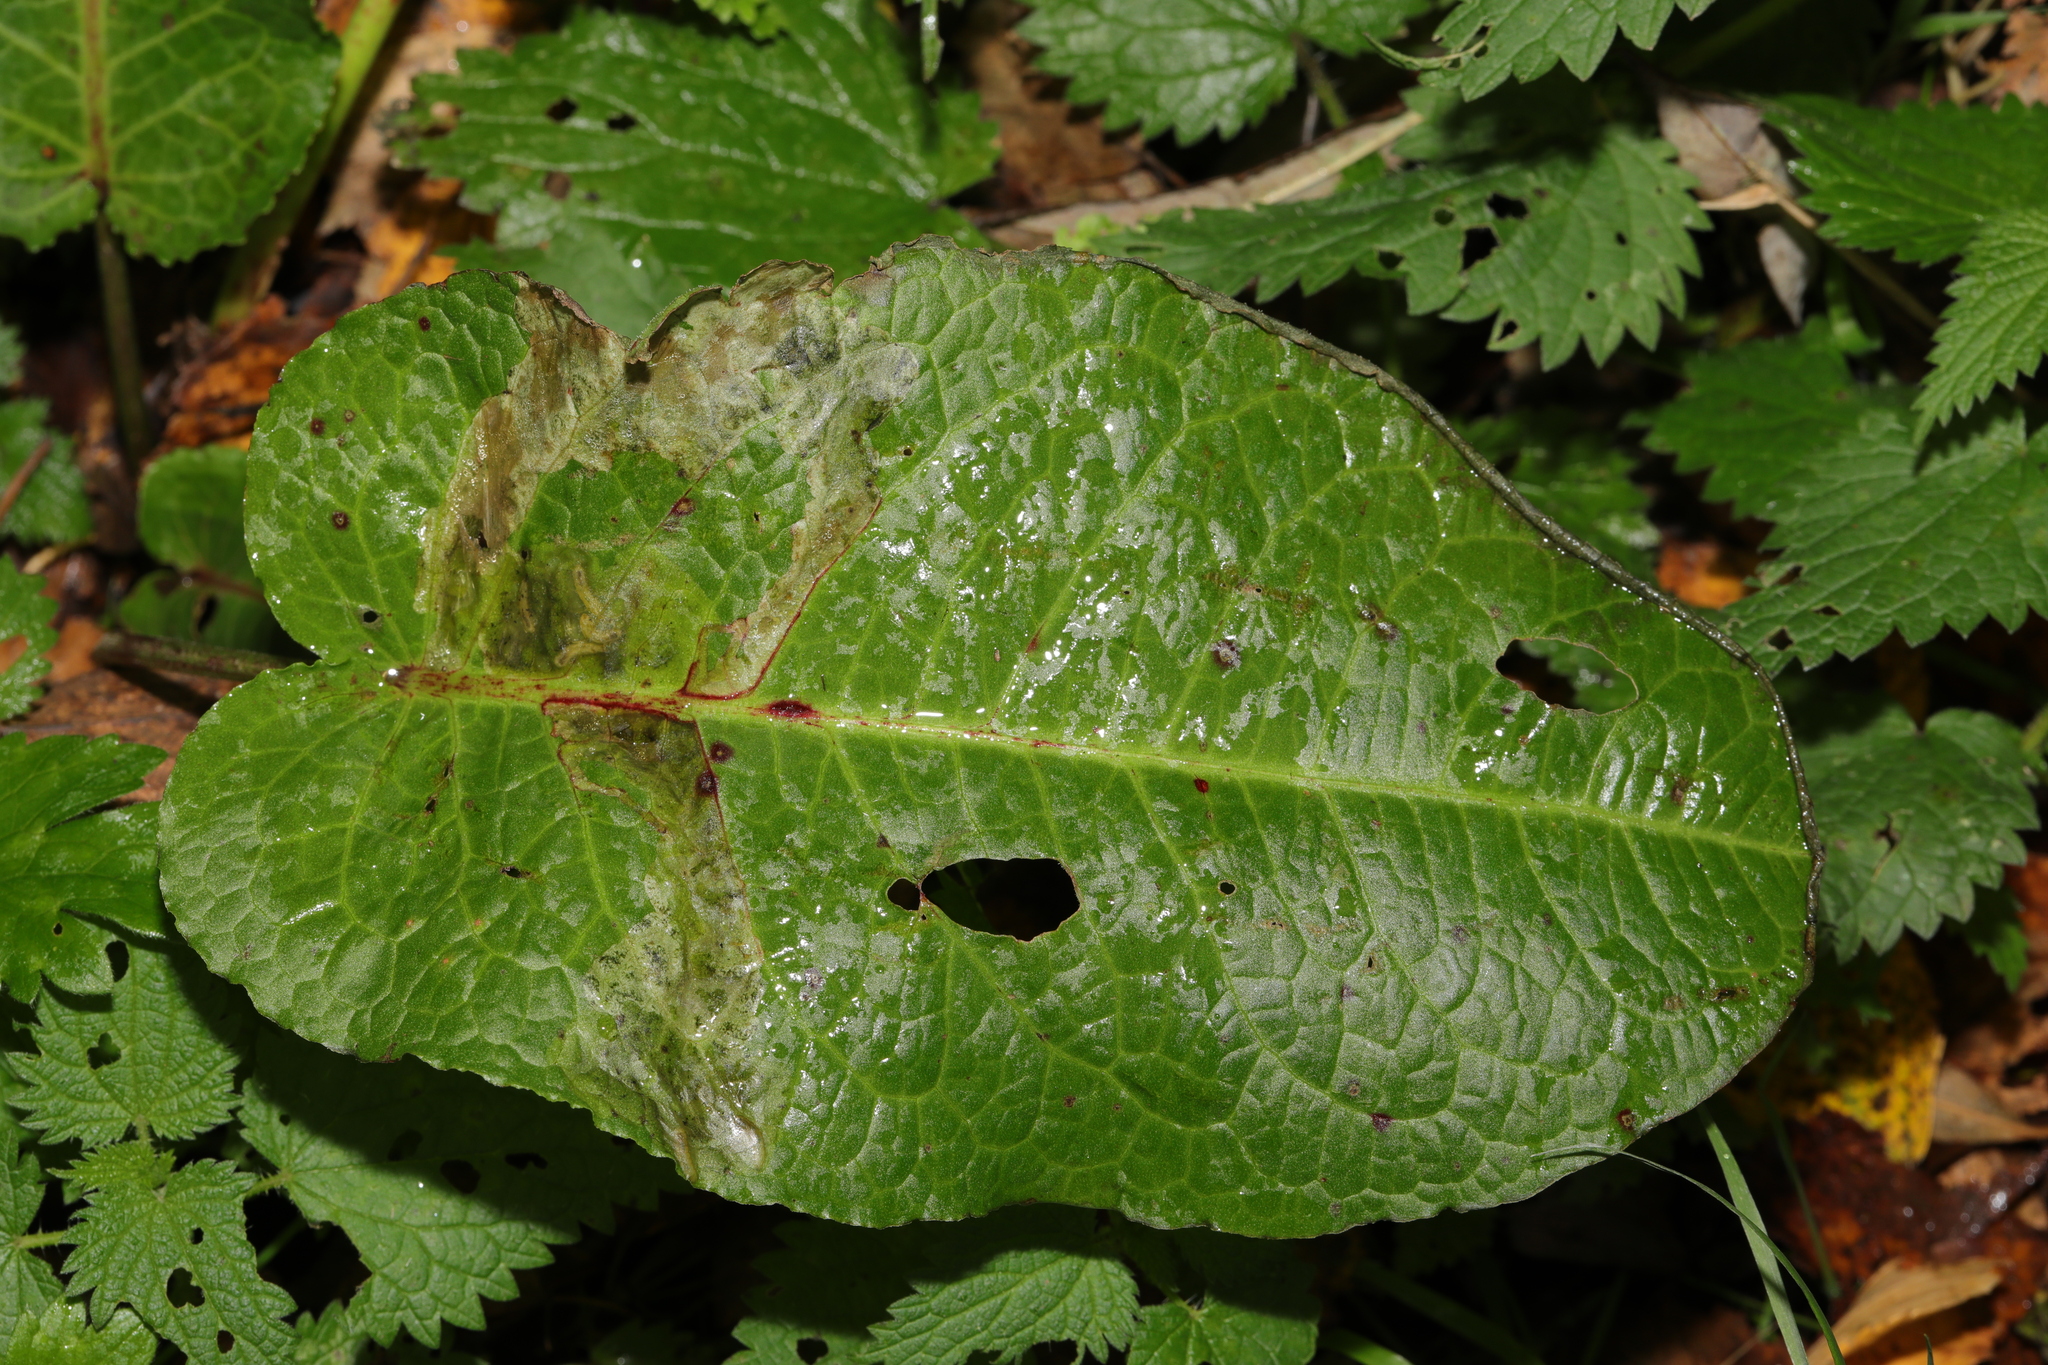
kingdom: Plantae
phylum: Tracheophyta
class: Magnoliopsida
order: Caryophyllales
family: Polygonaceae
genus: Rumex
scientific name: Rumex obtusifolius
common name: Bitter dock
